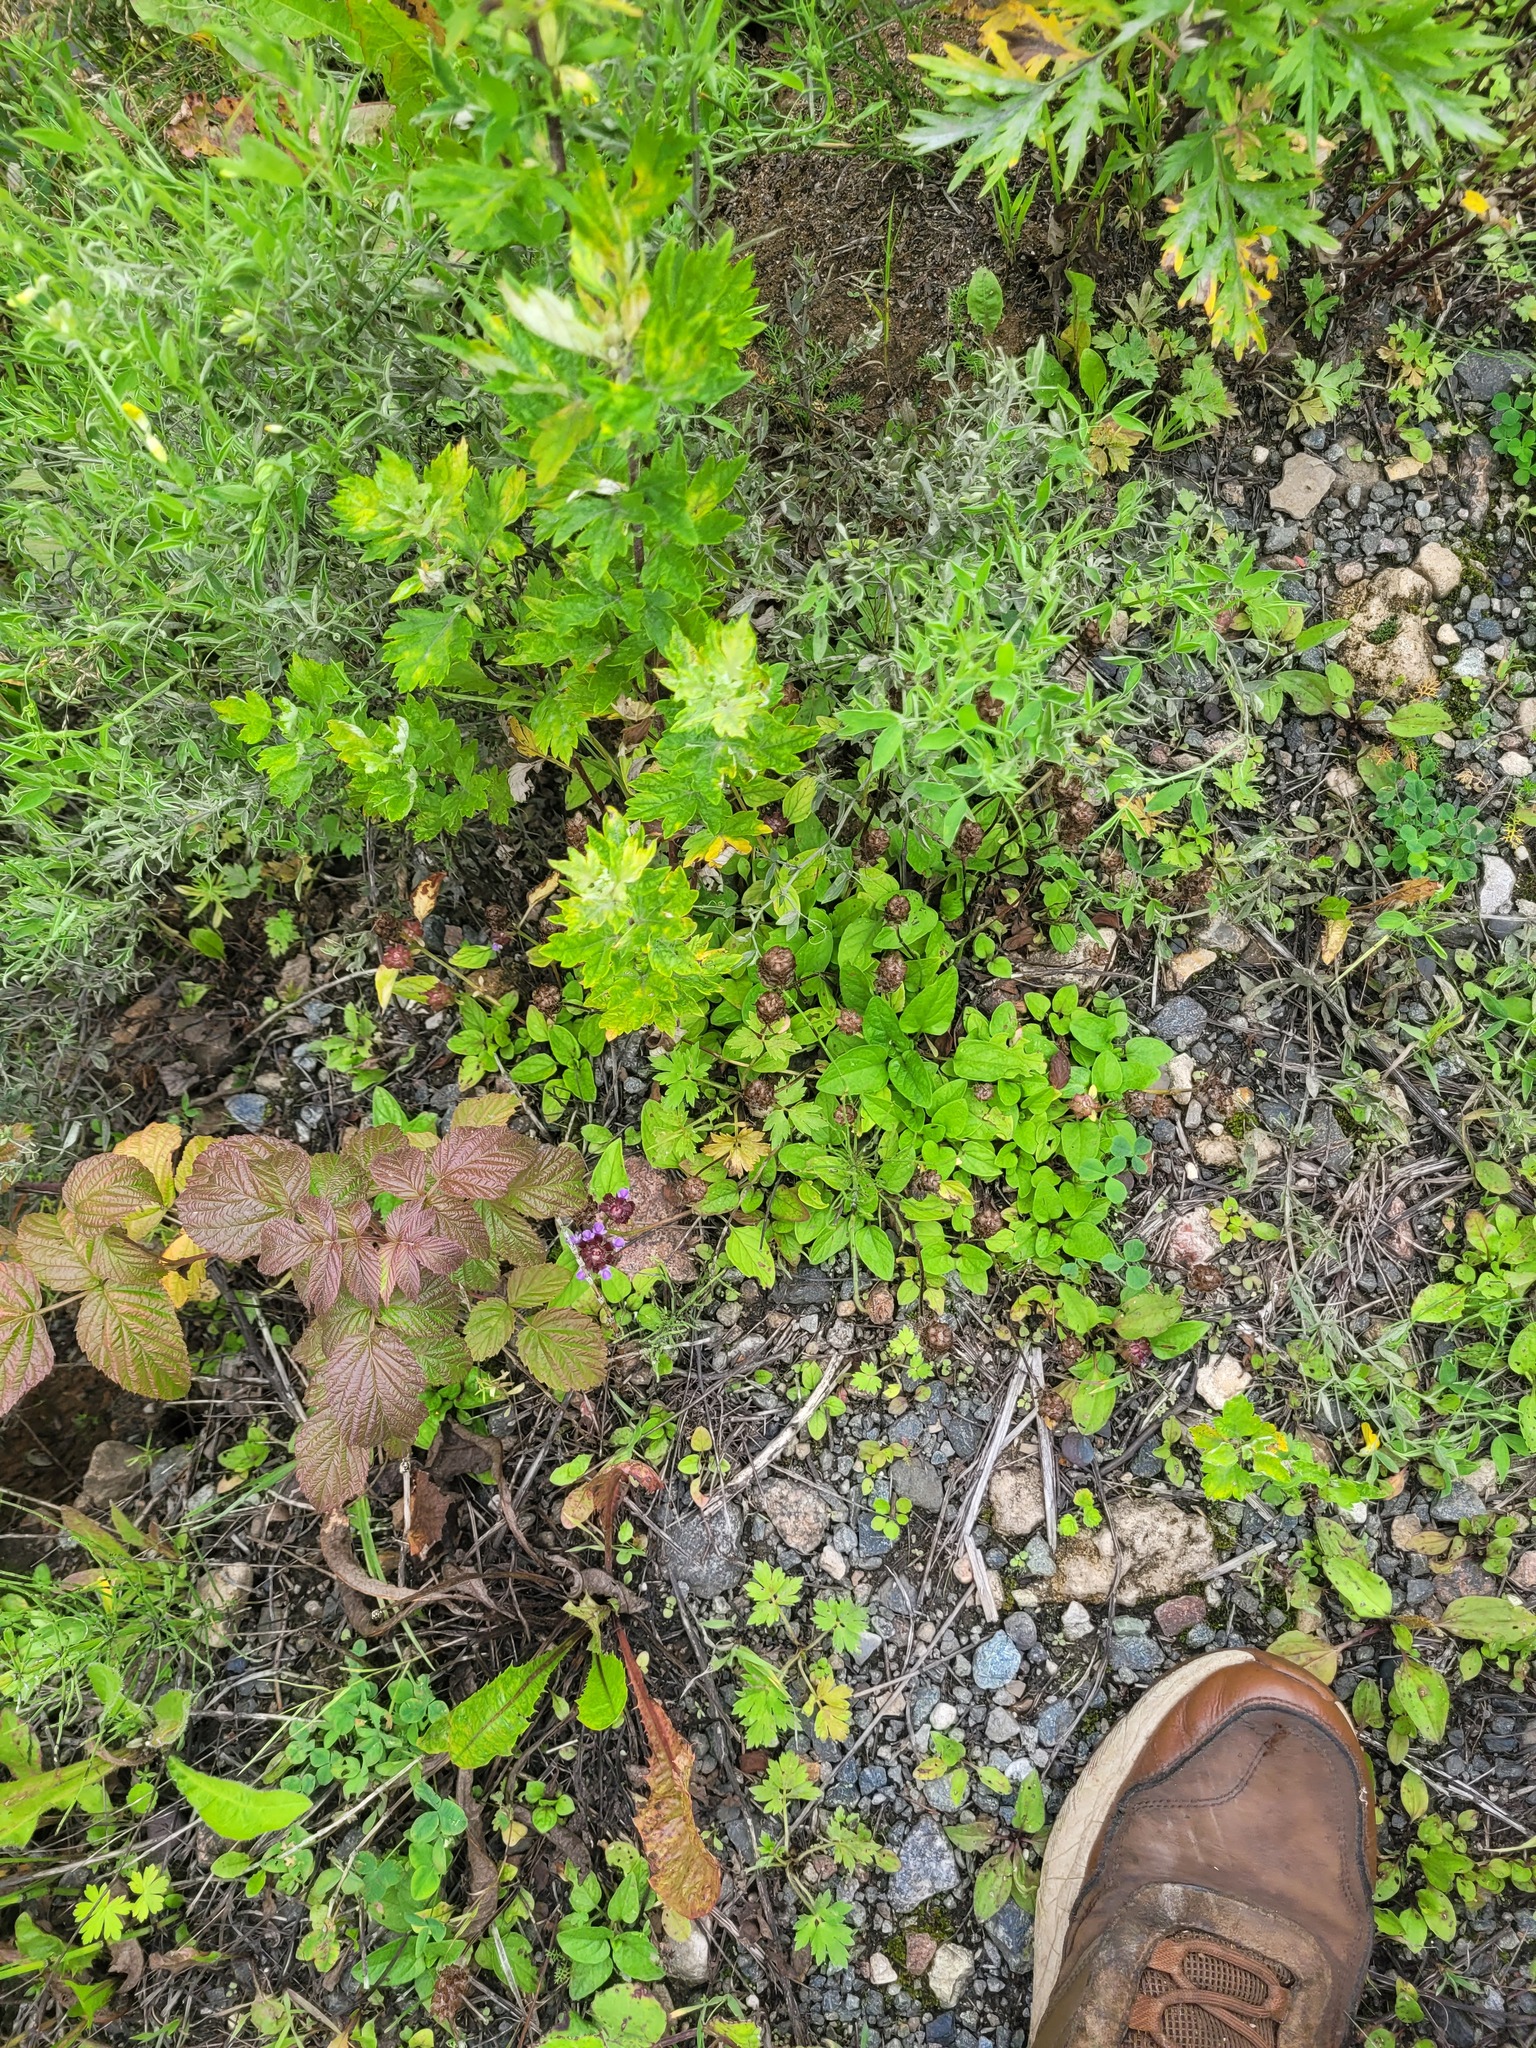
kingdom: Plantae
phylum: Tracheophyta
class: Magnoliopsida
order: Lamiales
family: Lamiaceae
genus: Prunella
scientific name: Prunella vulgaris
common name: Heal-all
